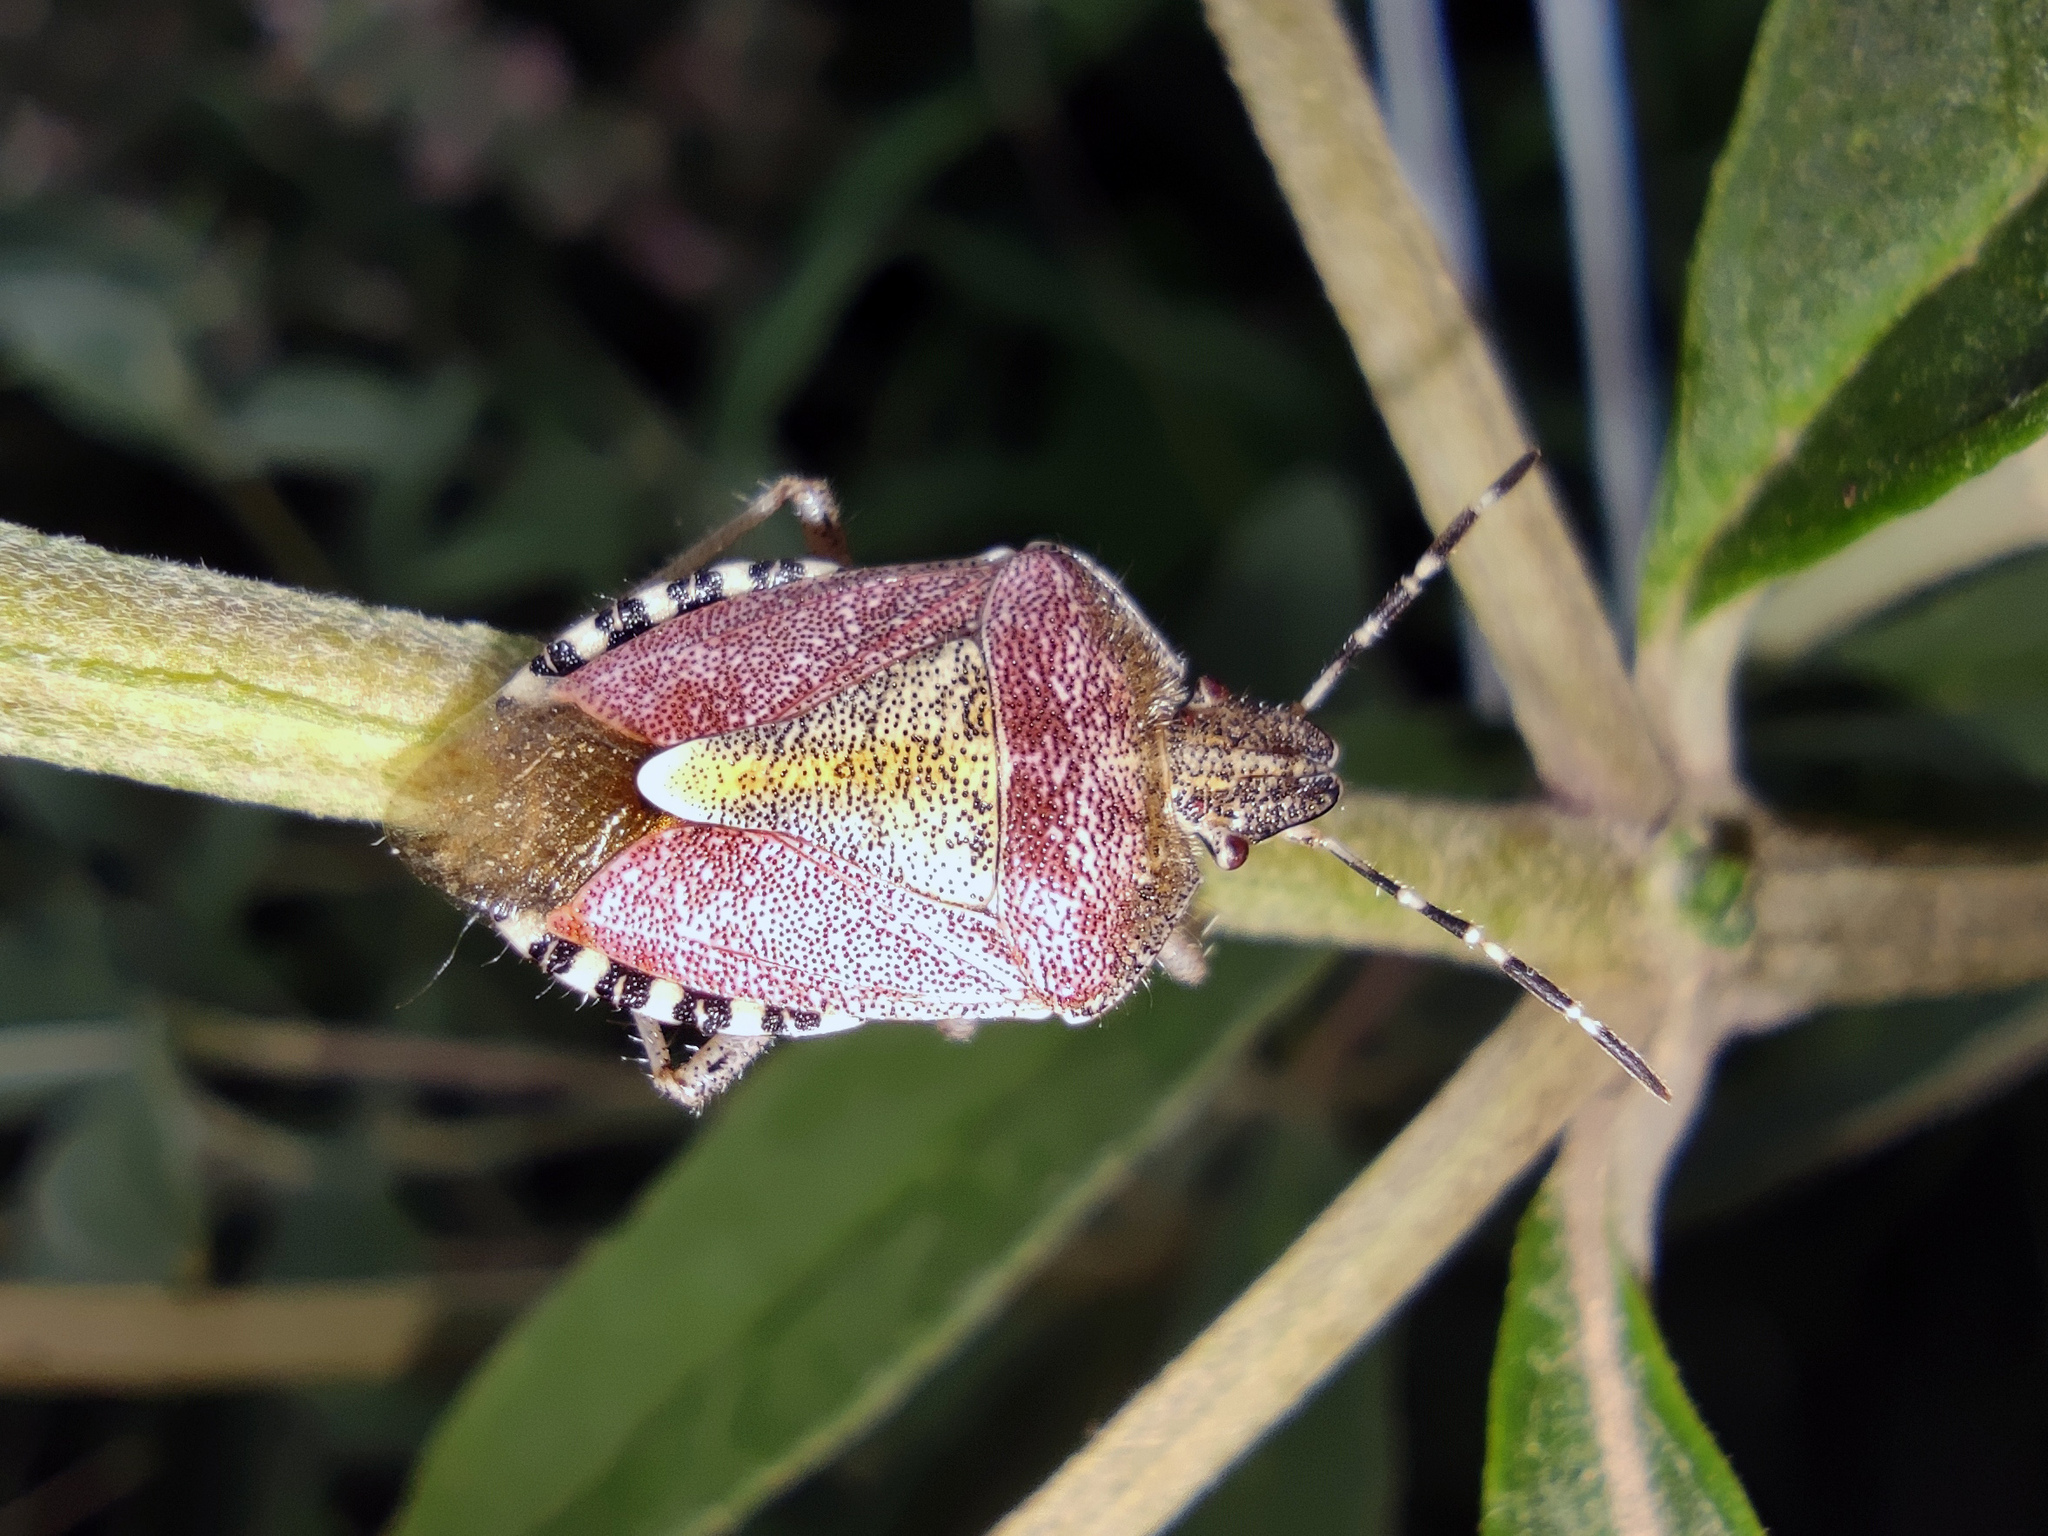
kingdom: Animalia
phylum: Arthropoda
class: Insecta
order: Hemiptera
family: Pentatomidae
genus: Dolycoris
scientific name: Dolycoris baccarum
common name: Sloe bug
